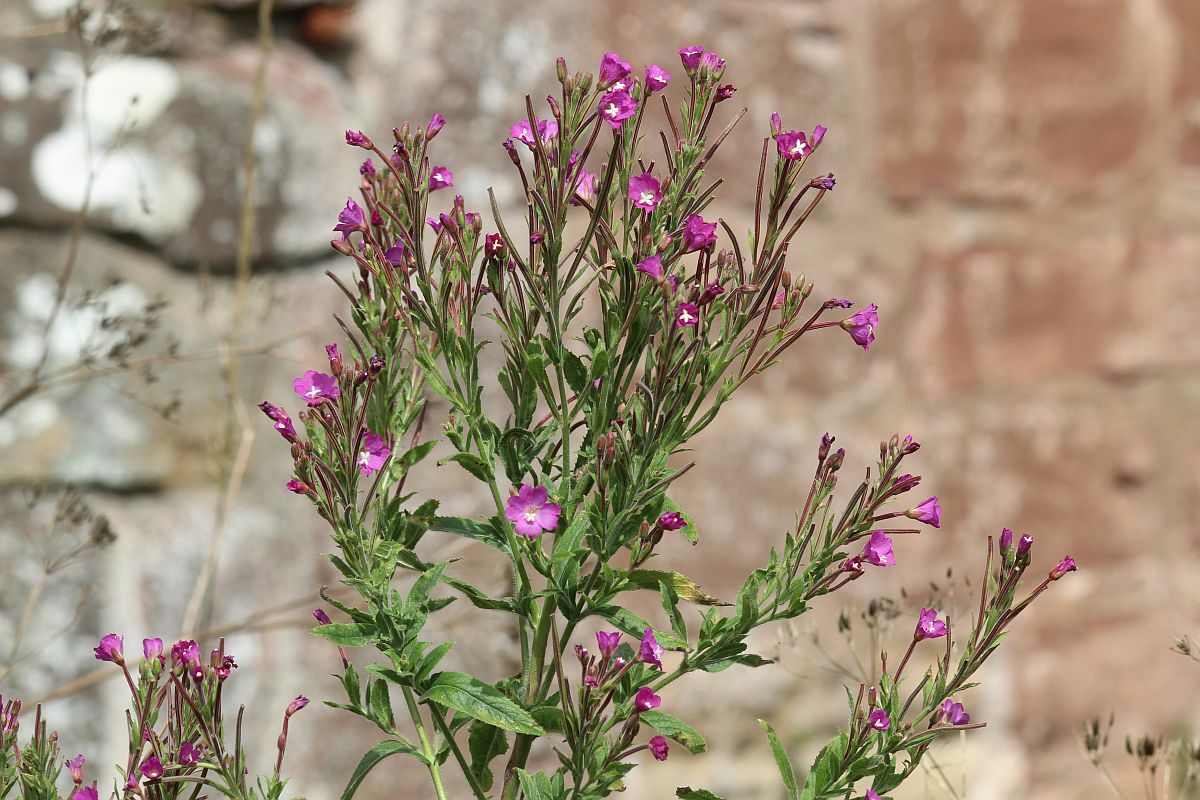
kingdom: Plantae
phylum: Tracheophyta
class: Magnoliopsida
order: Myrtales
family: Onagraceae
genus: Epilobium
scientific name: Epilobium hirsutum
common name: Great willowherb
